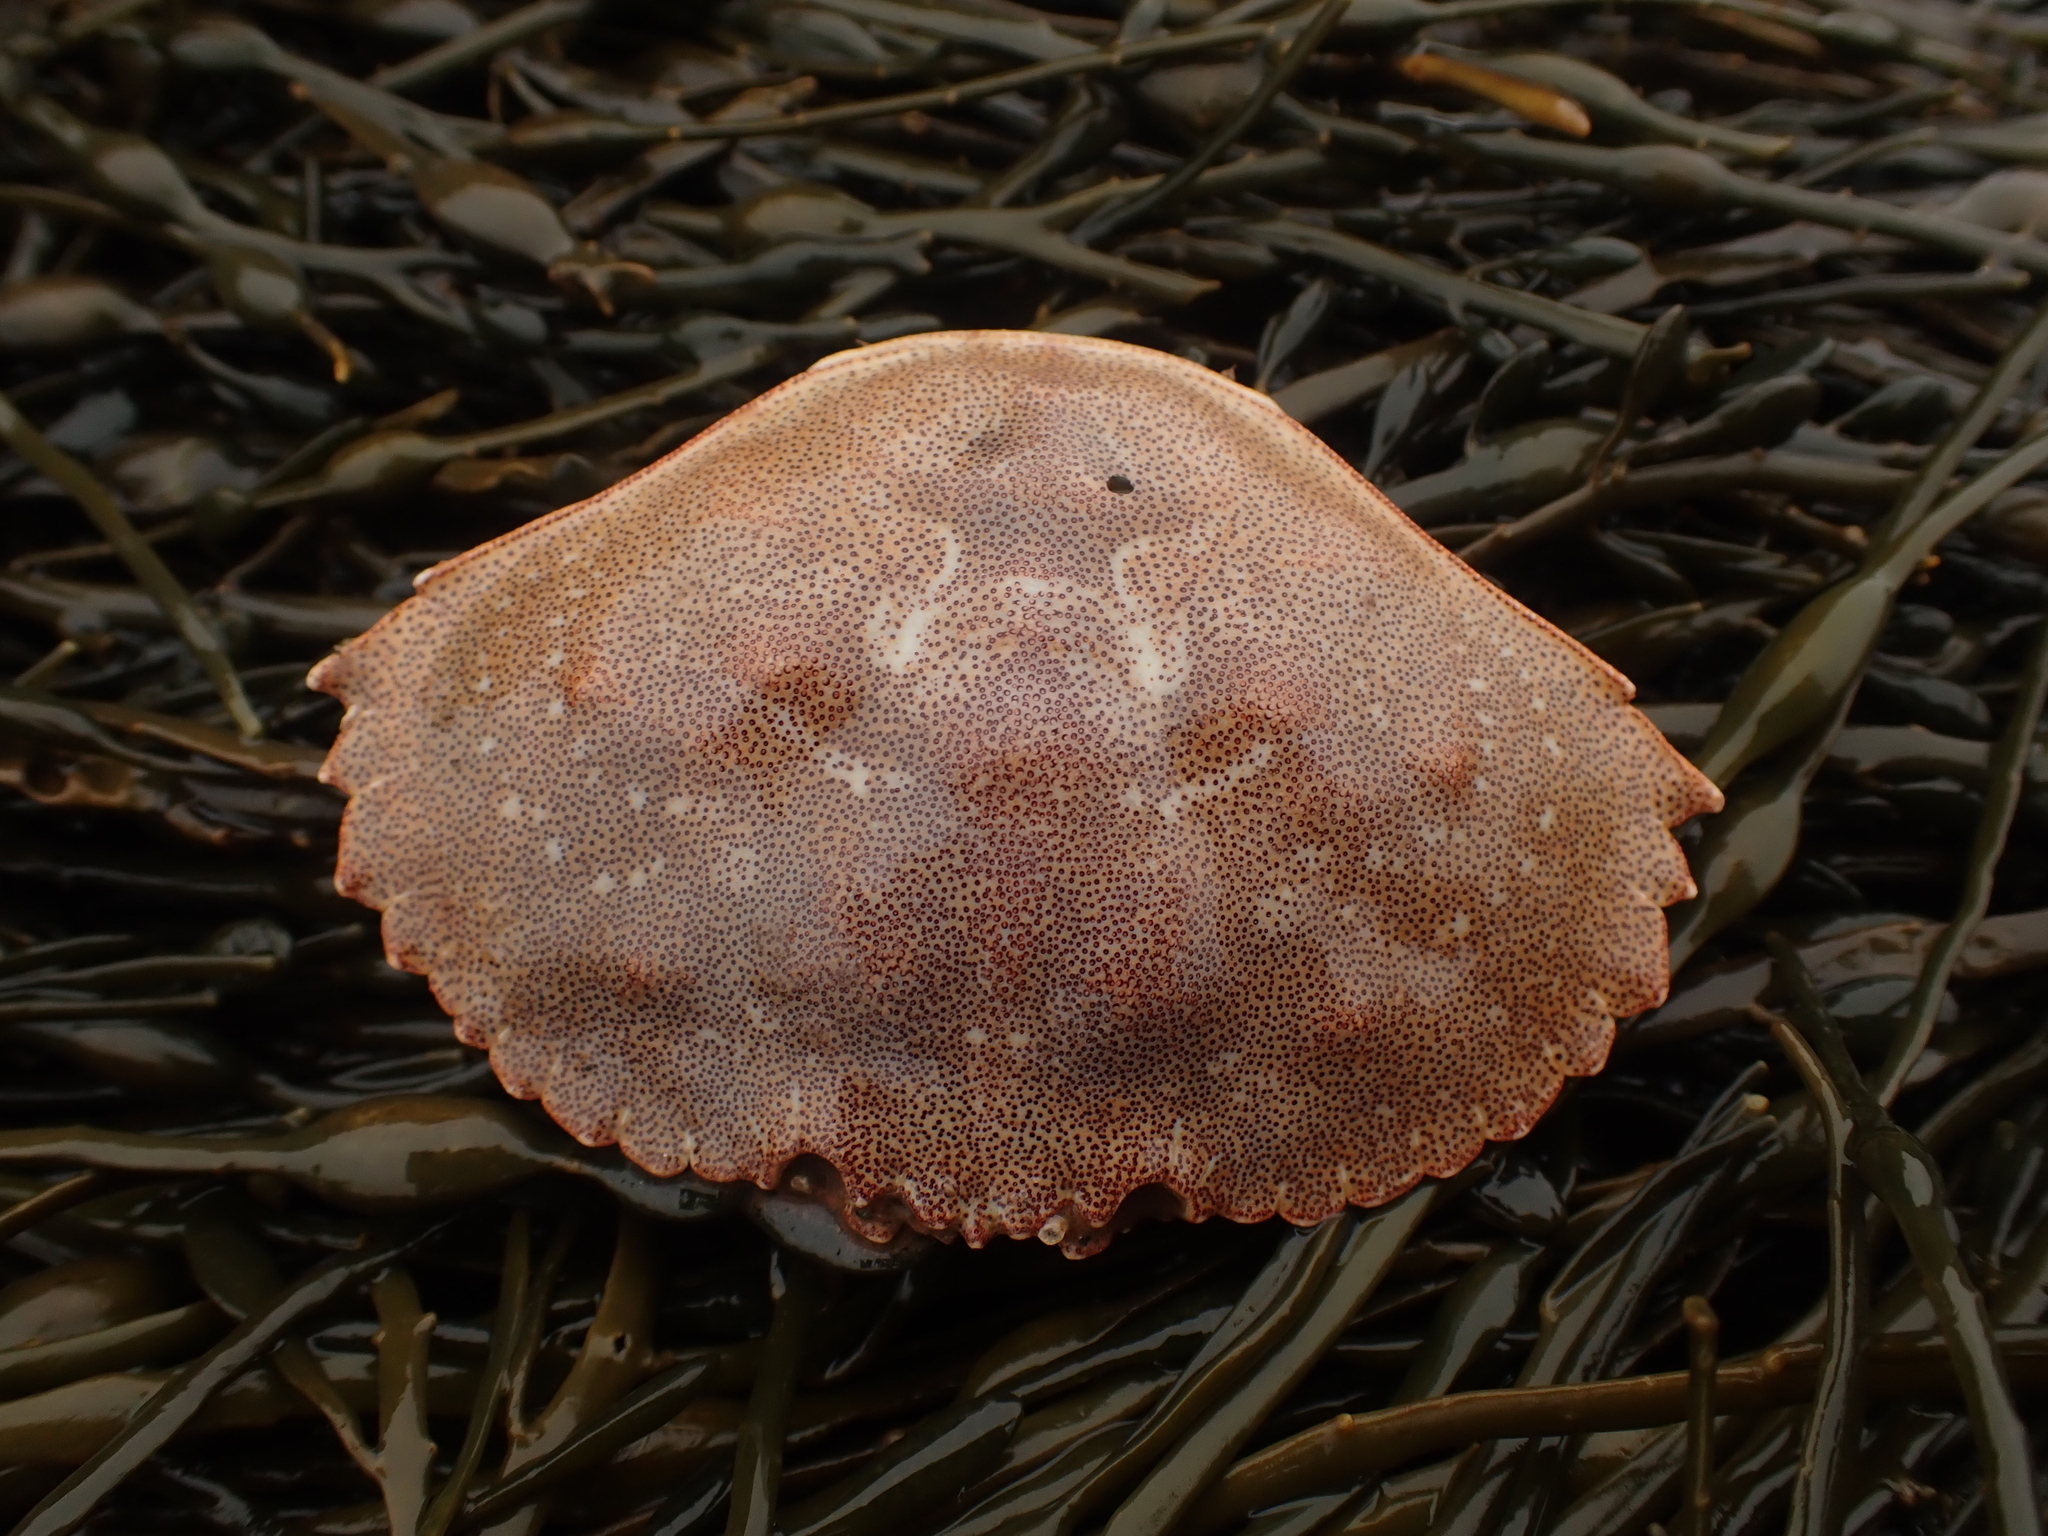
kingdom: Animalia
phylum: Arthropoda
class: Malacostraca
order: Decapoda
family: Cancridae
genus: Cancer
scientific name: Cancer irroratus
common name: Atlantic rock crab
